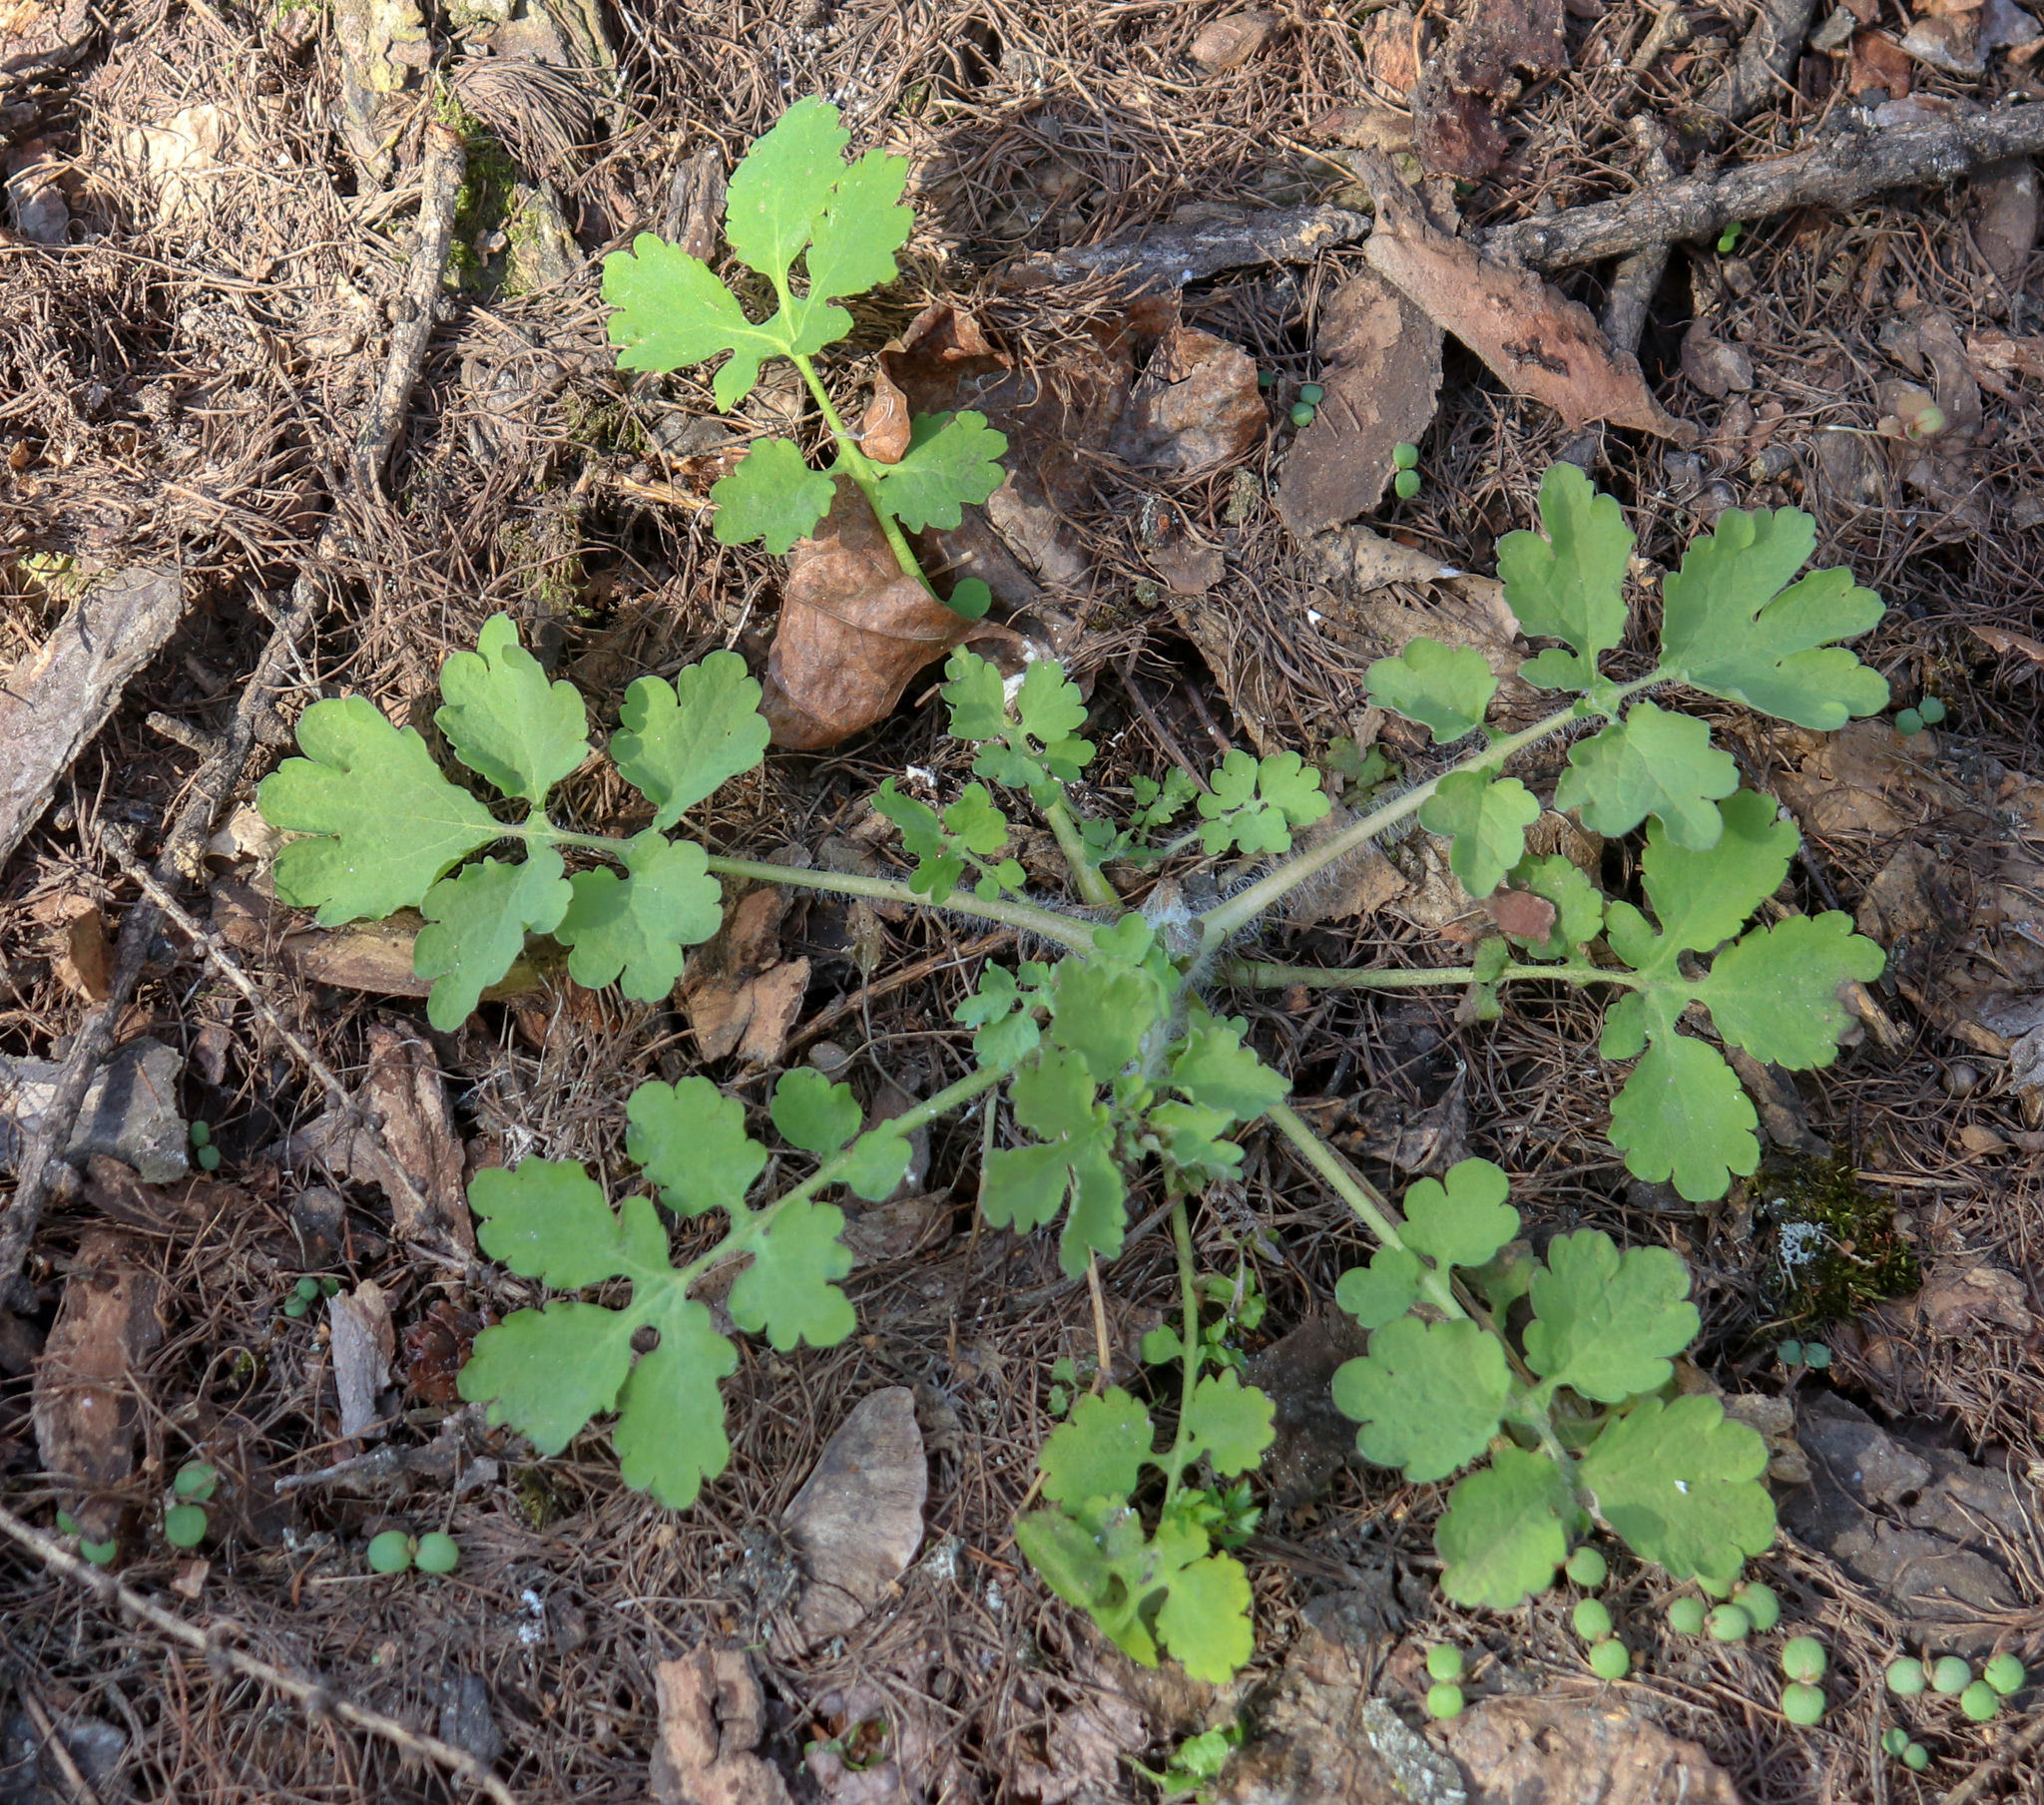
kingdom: Plantae
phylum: Tracheophyta
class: Magnoliopsida
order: Ranunculales
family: Papaveraceae
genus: Chelidonium
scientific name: Chelidonium majus
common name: Greater celandine
